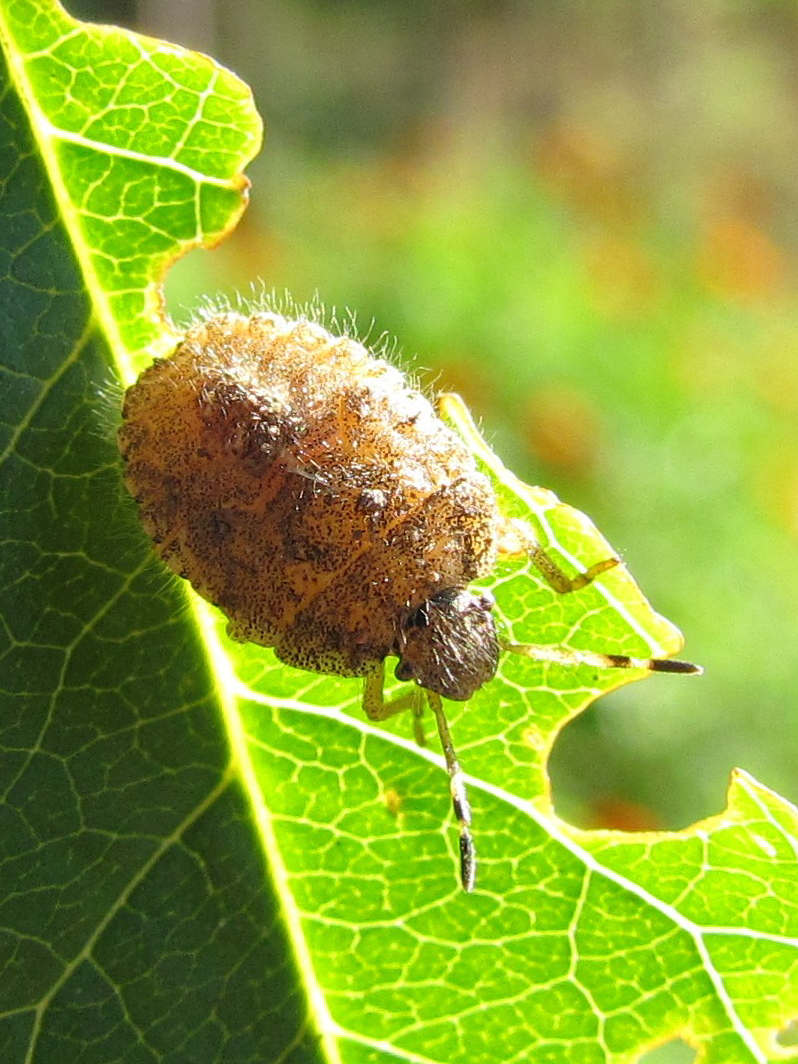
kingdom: Animalia
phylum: Arthropoda
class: Insecta
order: Hemiptera
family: Pentatomidae
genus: Dolycoris
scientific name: Dolycoris baccarum
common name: Sloe bug
